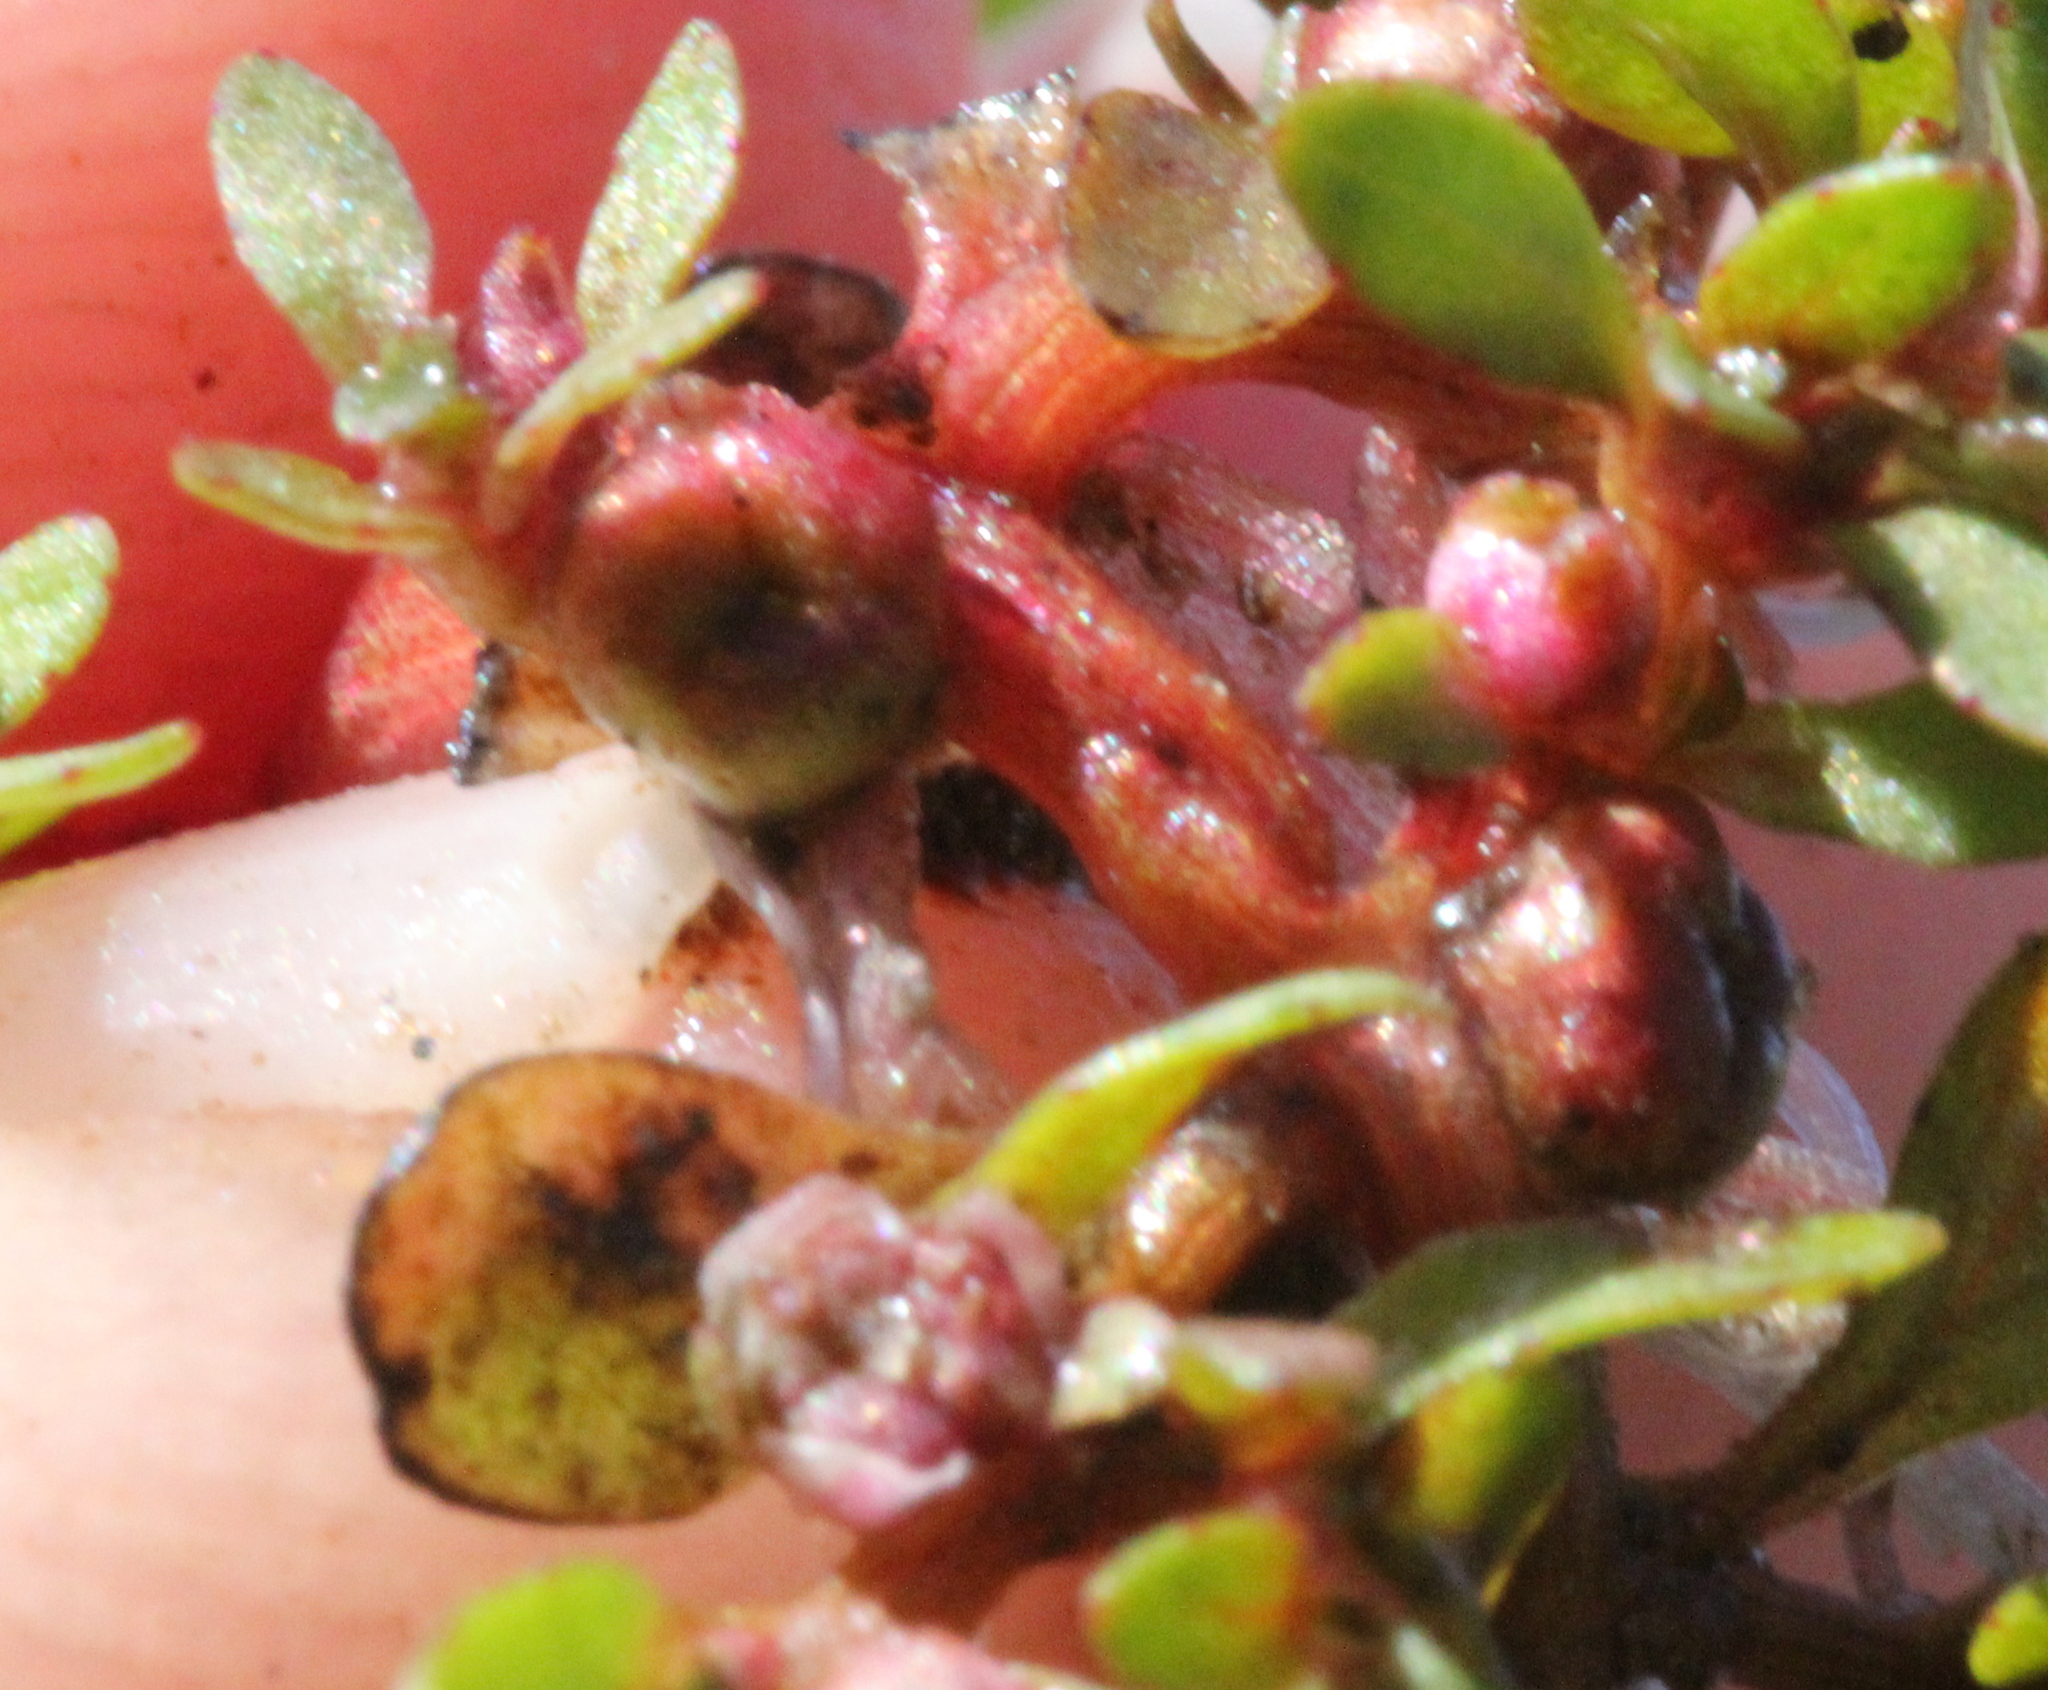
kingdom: Plantae
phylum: Tracheophyta
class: Magnoliopsida
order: Malpighiales
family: Elatinaceae
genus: Elatine
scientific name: Elatine brachysperma
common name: Short-fruited waterwort
